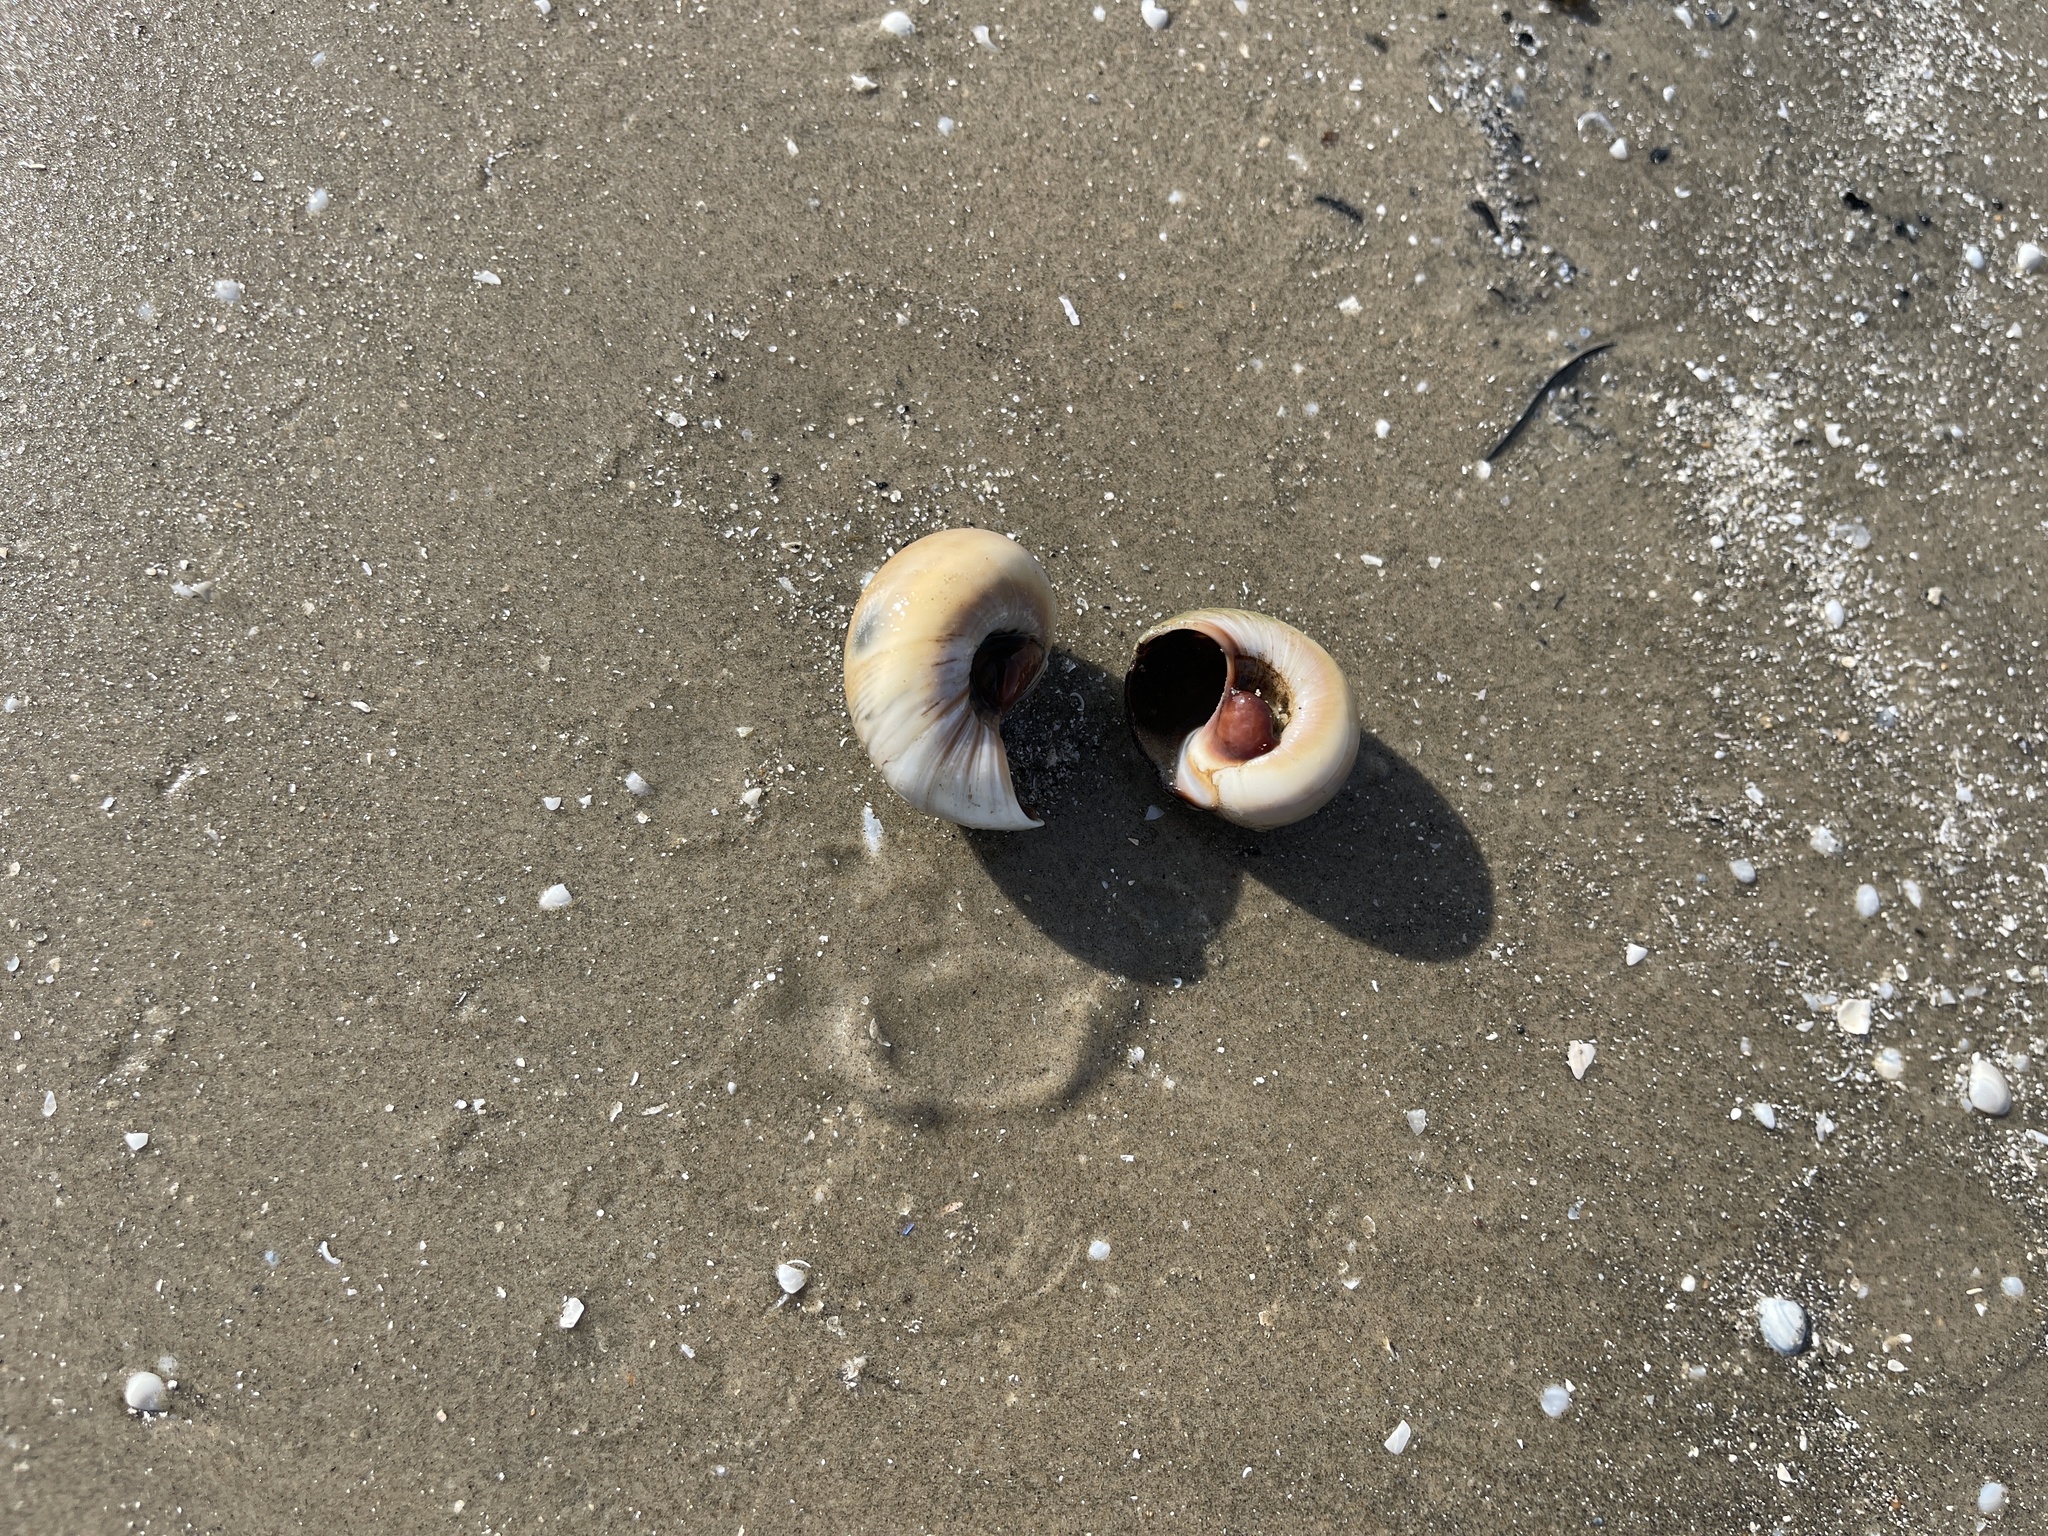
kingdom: Animalia
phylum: Mollusca
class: Gastropoda
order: Littorinimorpha
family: Naticidae
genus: Neverita
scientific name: Neverita delessertiana
